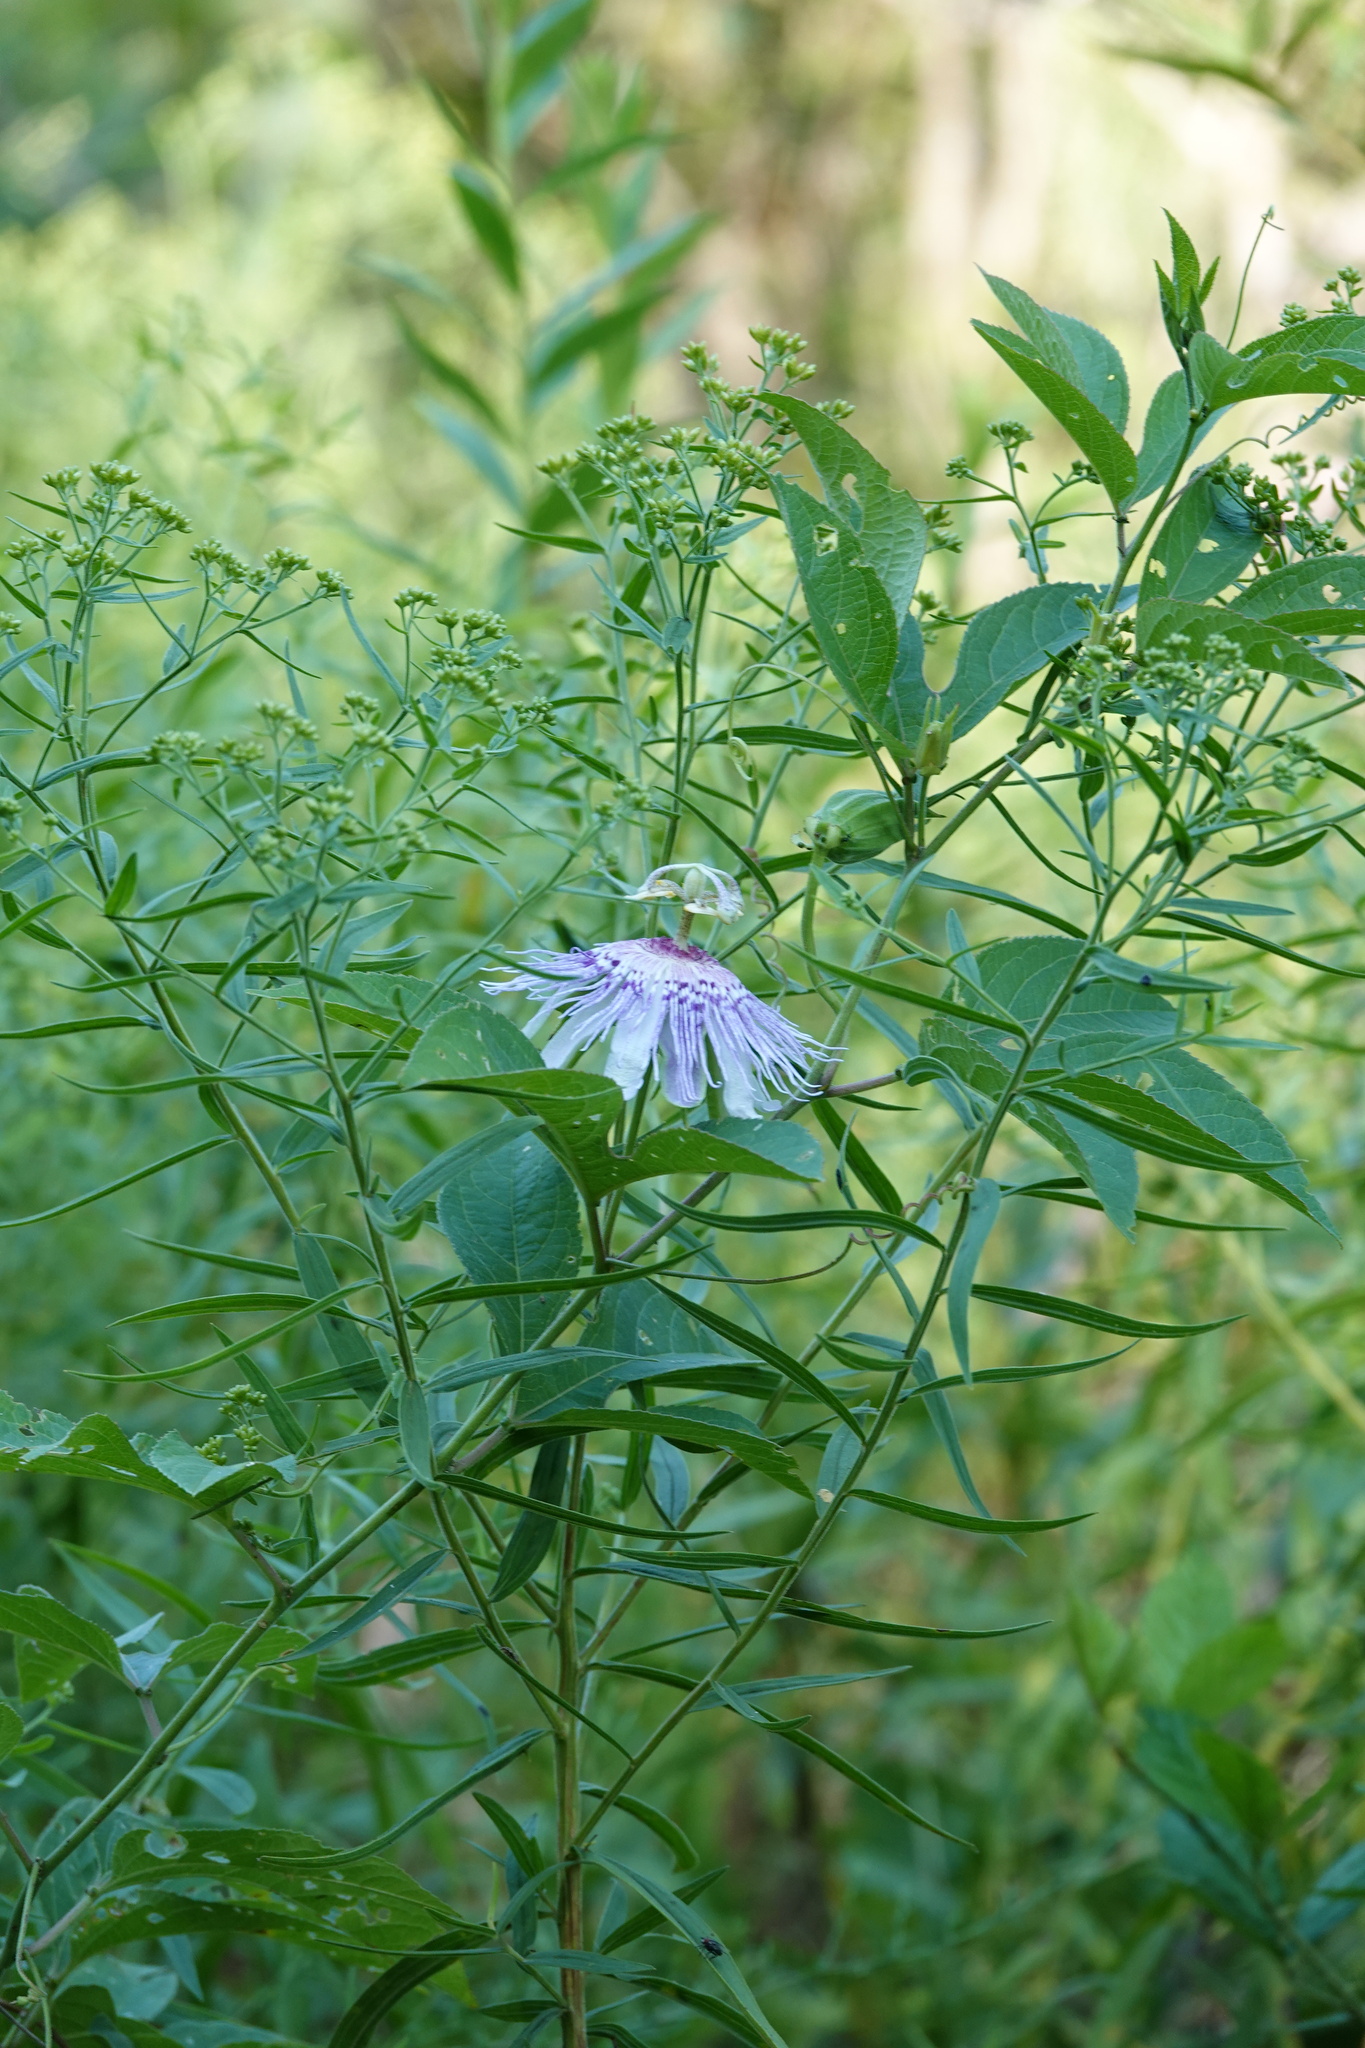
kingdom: Plantae
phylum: Tracheophyta
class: Magnoliopsida
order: Malpighiales
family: Passifloraceae
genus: Passiflora
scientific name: Passiflora incarnata
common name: Apricot-vine
